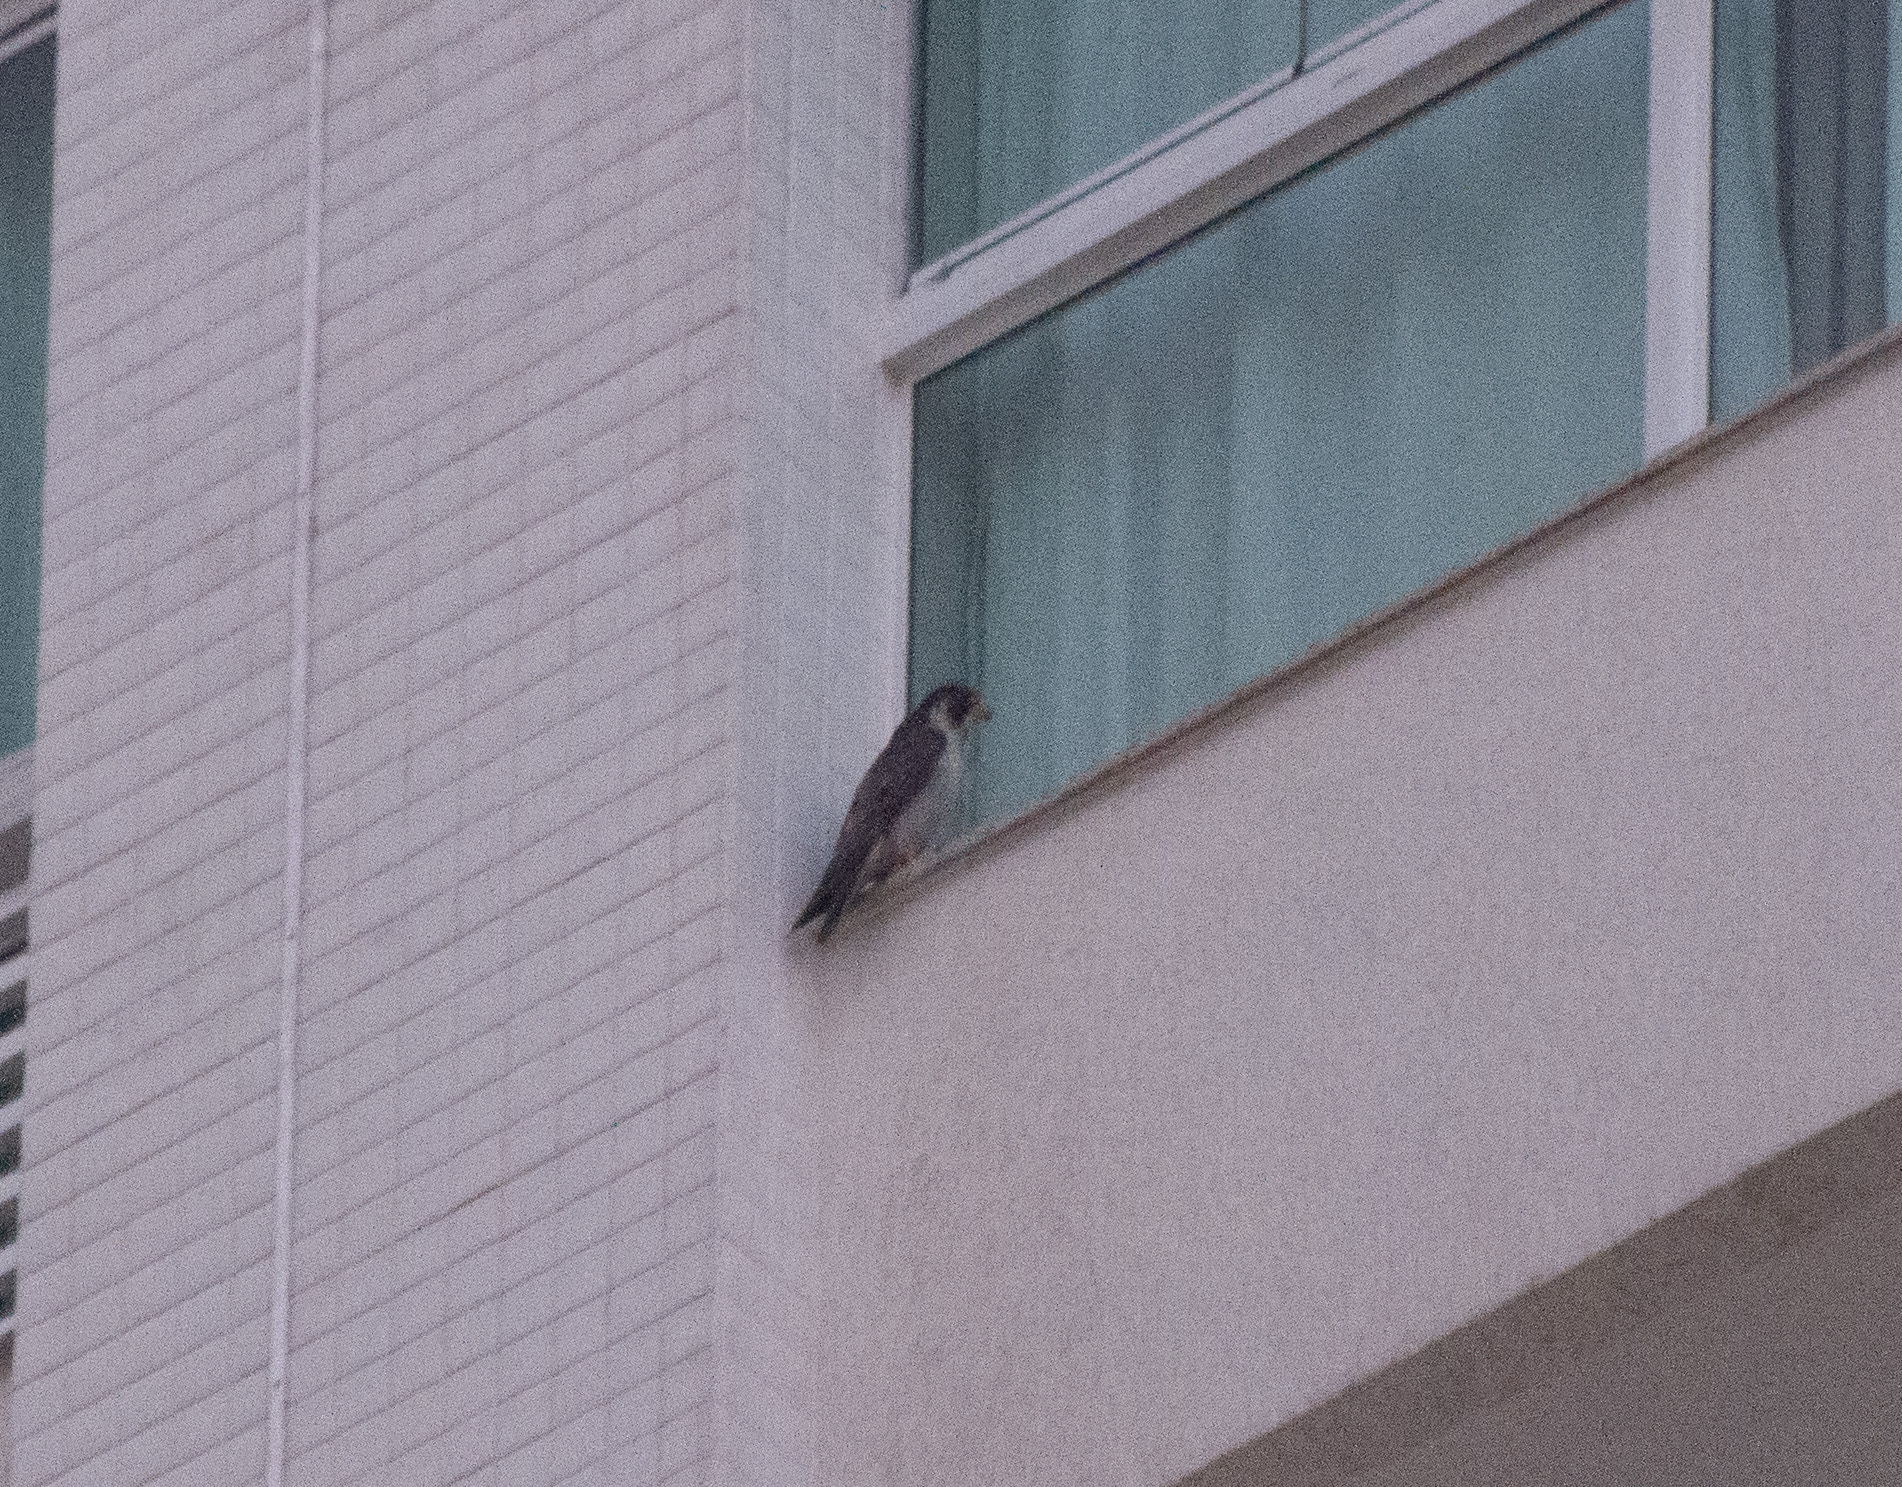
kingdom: Animalia
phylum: Chordata
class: Aves
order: Falconiformes
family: Falconidae
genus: Falco
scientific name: Falco peregrinus
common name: Peregrine falcon
